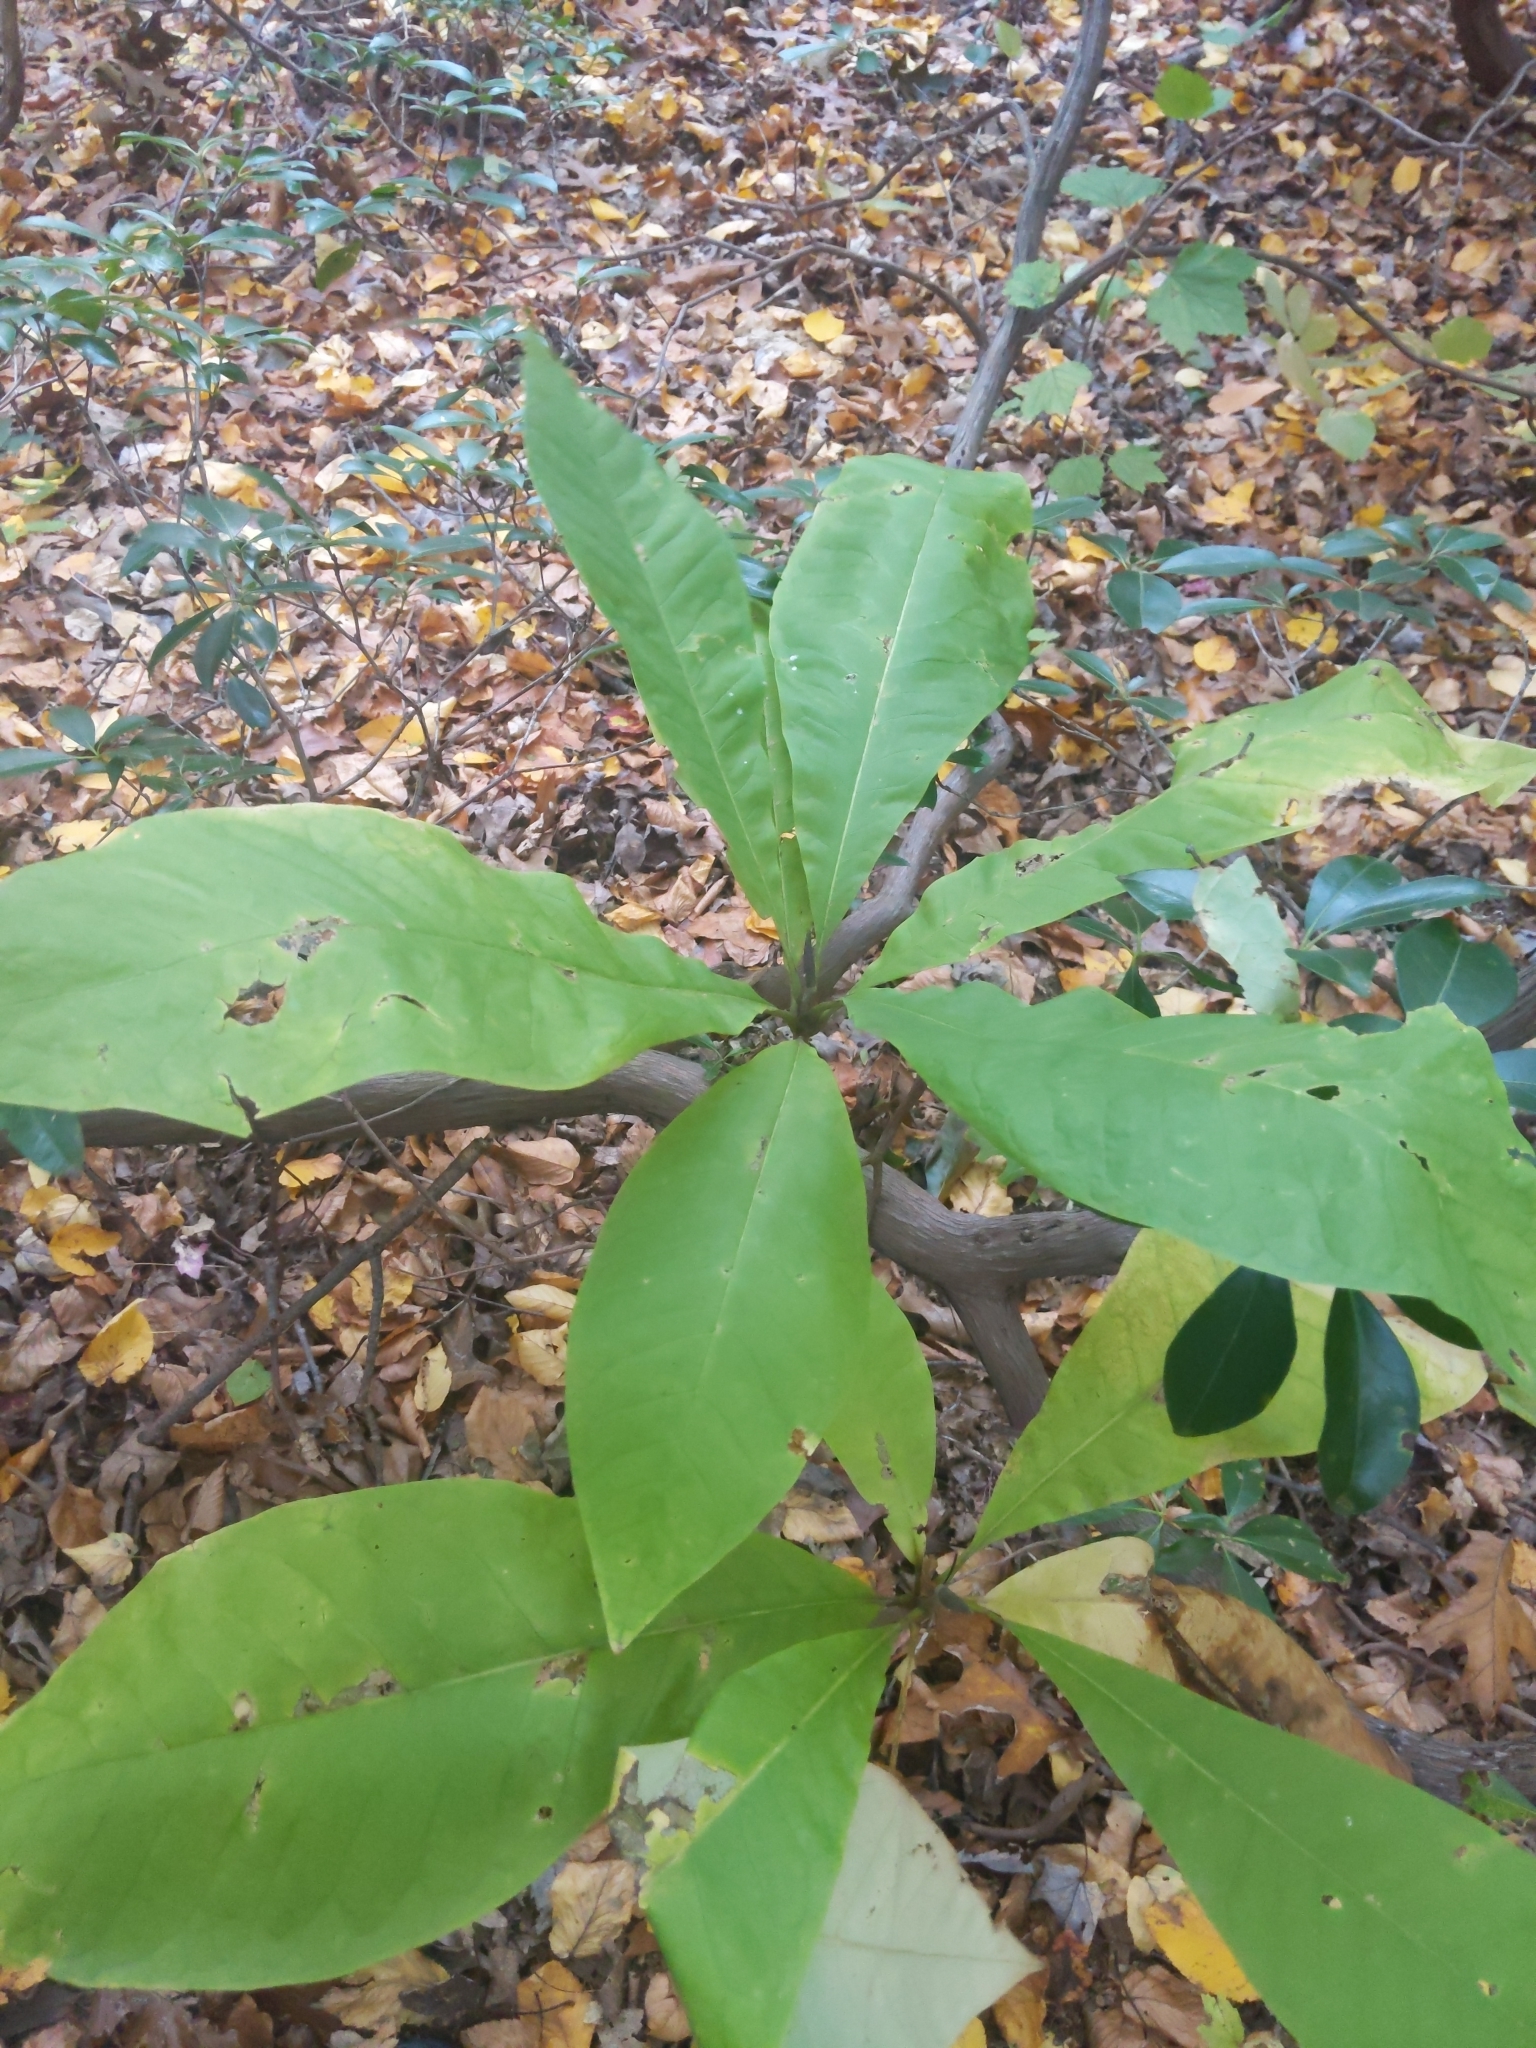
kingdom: Plantae
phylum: Tracheophyta
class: Magnoliopsida
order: Magnoliales
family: Magnoliaceae
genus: Magnolia
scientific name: Magnolia tripetala
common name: Umbrella magnolia
